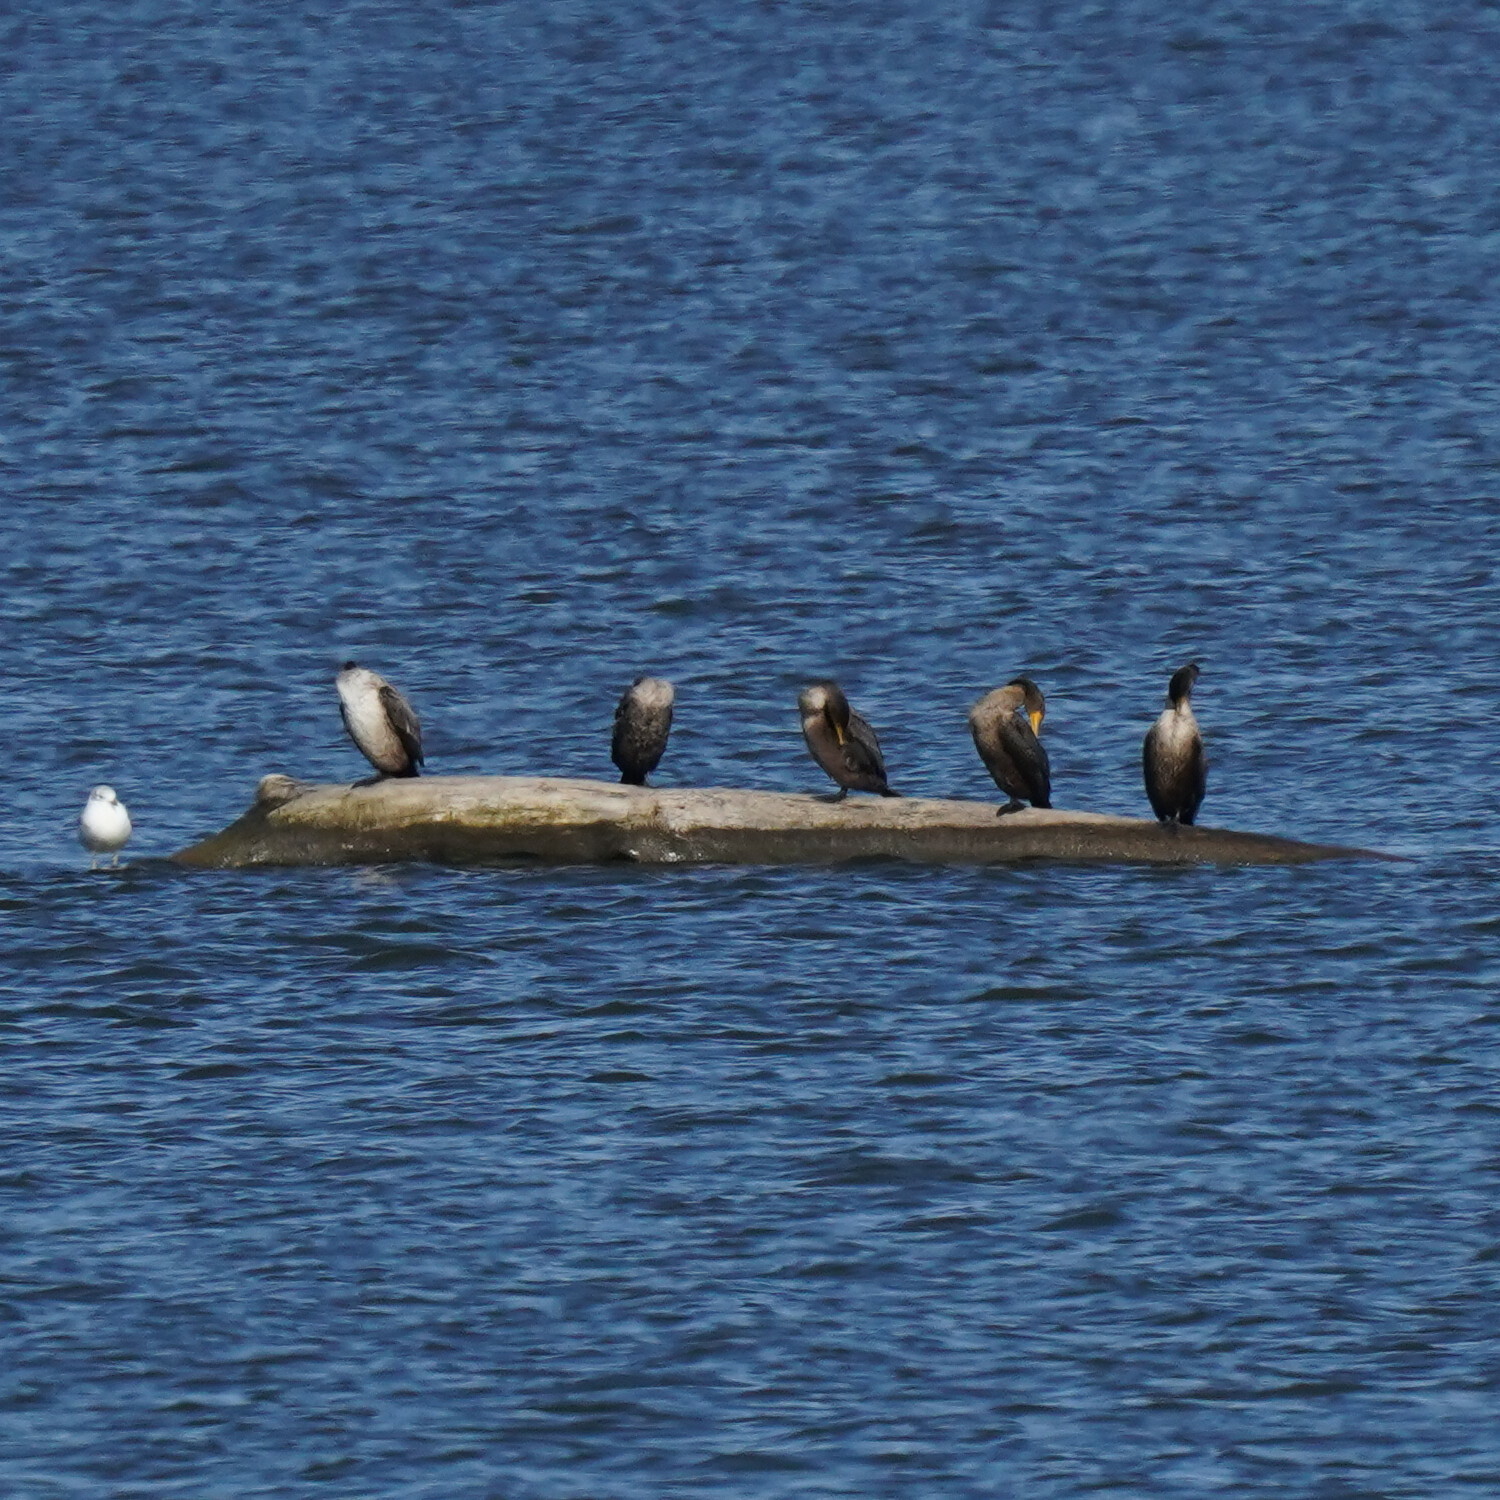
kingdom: Animalia
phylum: Chordata
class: Aves
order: Suliformes
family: Phalacrocoracidae
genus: Phalacrocorax
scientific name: Phalacrocorax auritus
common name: Double-crested cormorant
